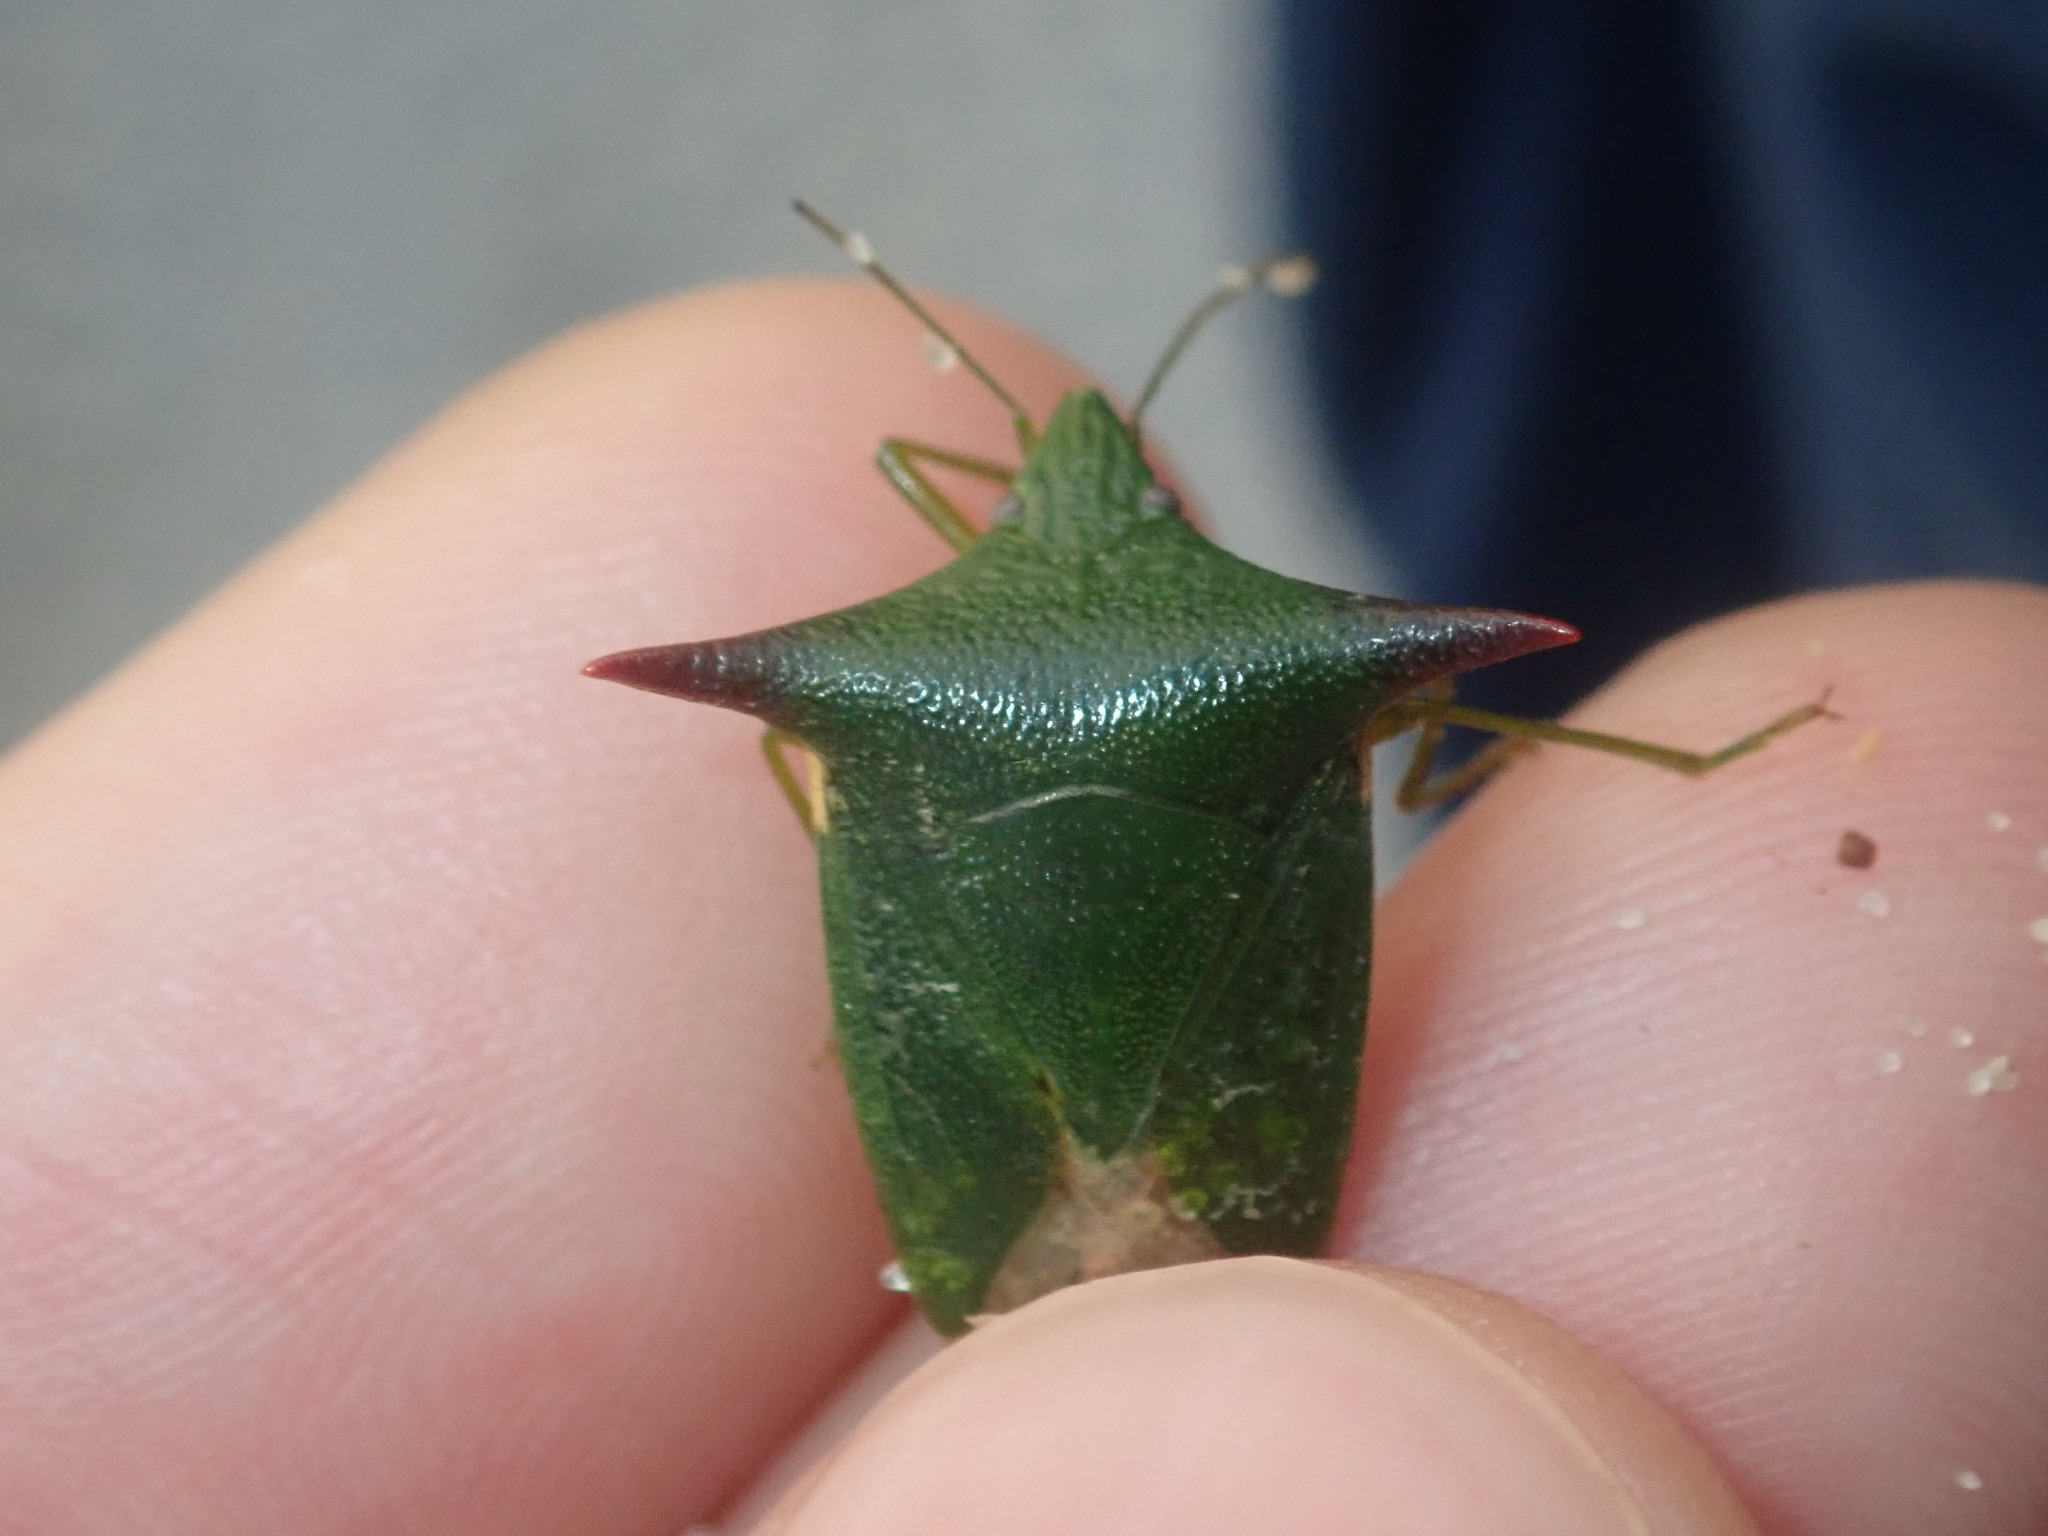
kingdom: Animalia
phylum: Arthropoda
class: Insecta
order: Hemiptera
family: Pentatomidae
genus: Vitellus
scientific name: Vitellus
